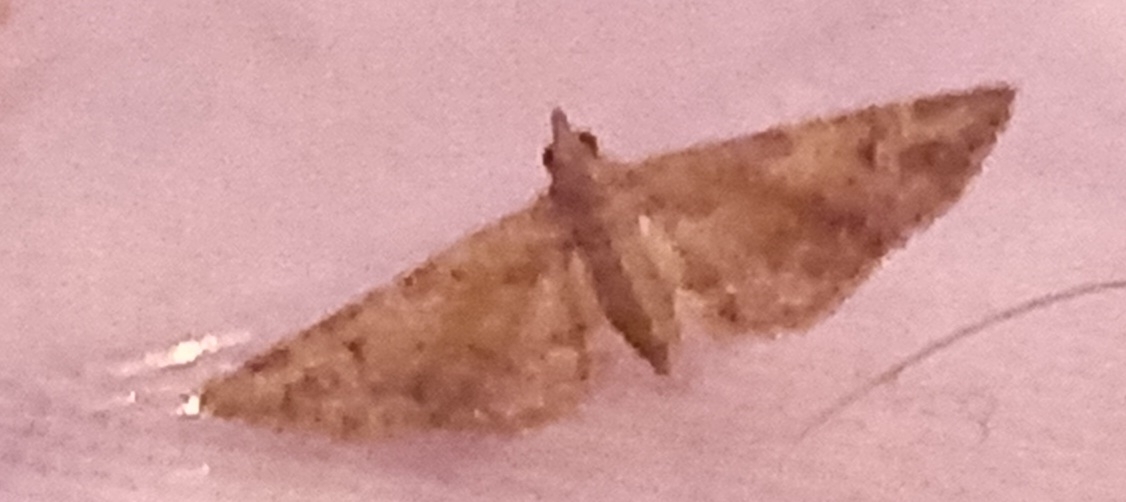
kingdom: Animalia
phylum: Arthropoda
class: Insecta
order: Lepidoptera
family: Geometridae
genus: Gymnoscelis
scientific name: Gymnoscelis rufifasciata
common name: Double-striped pug
